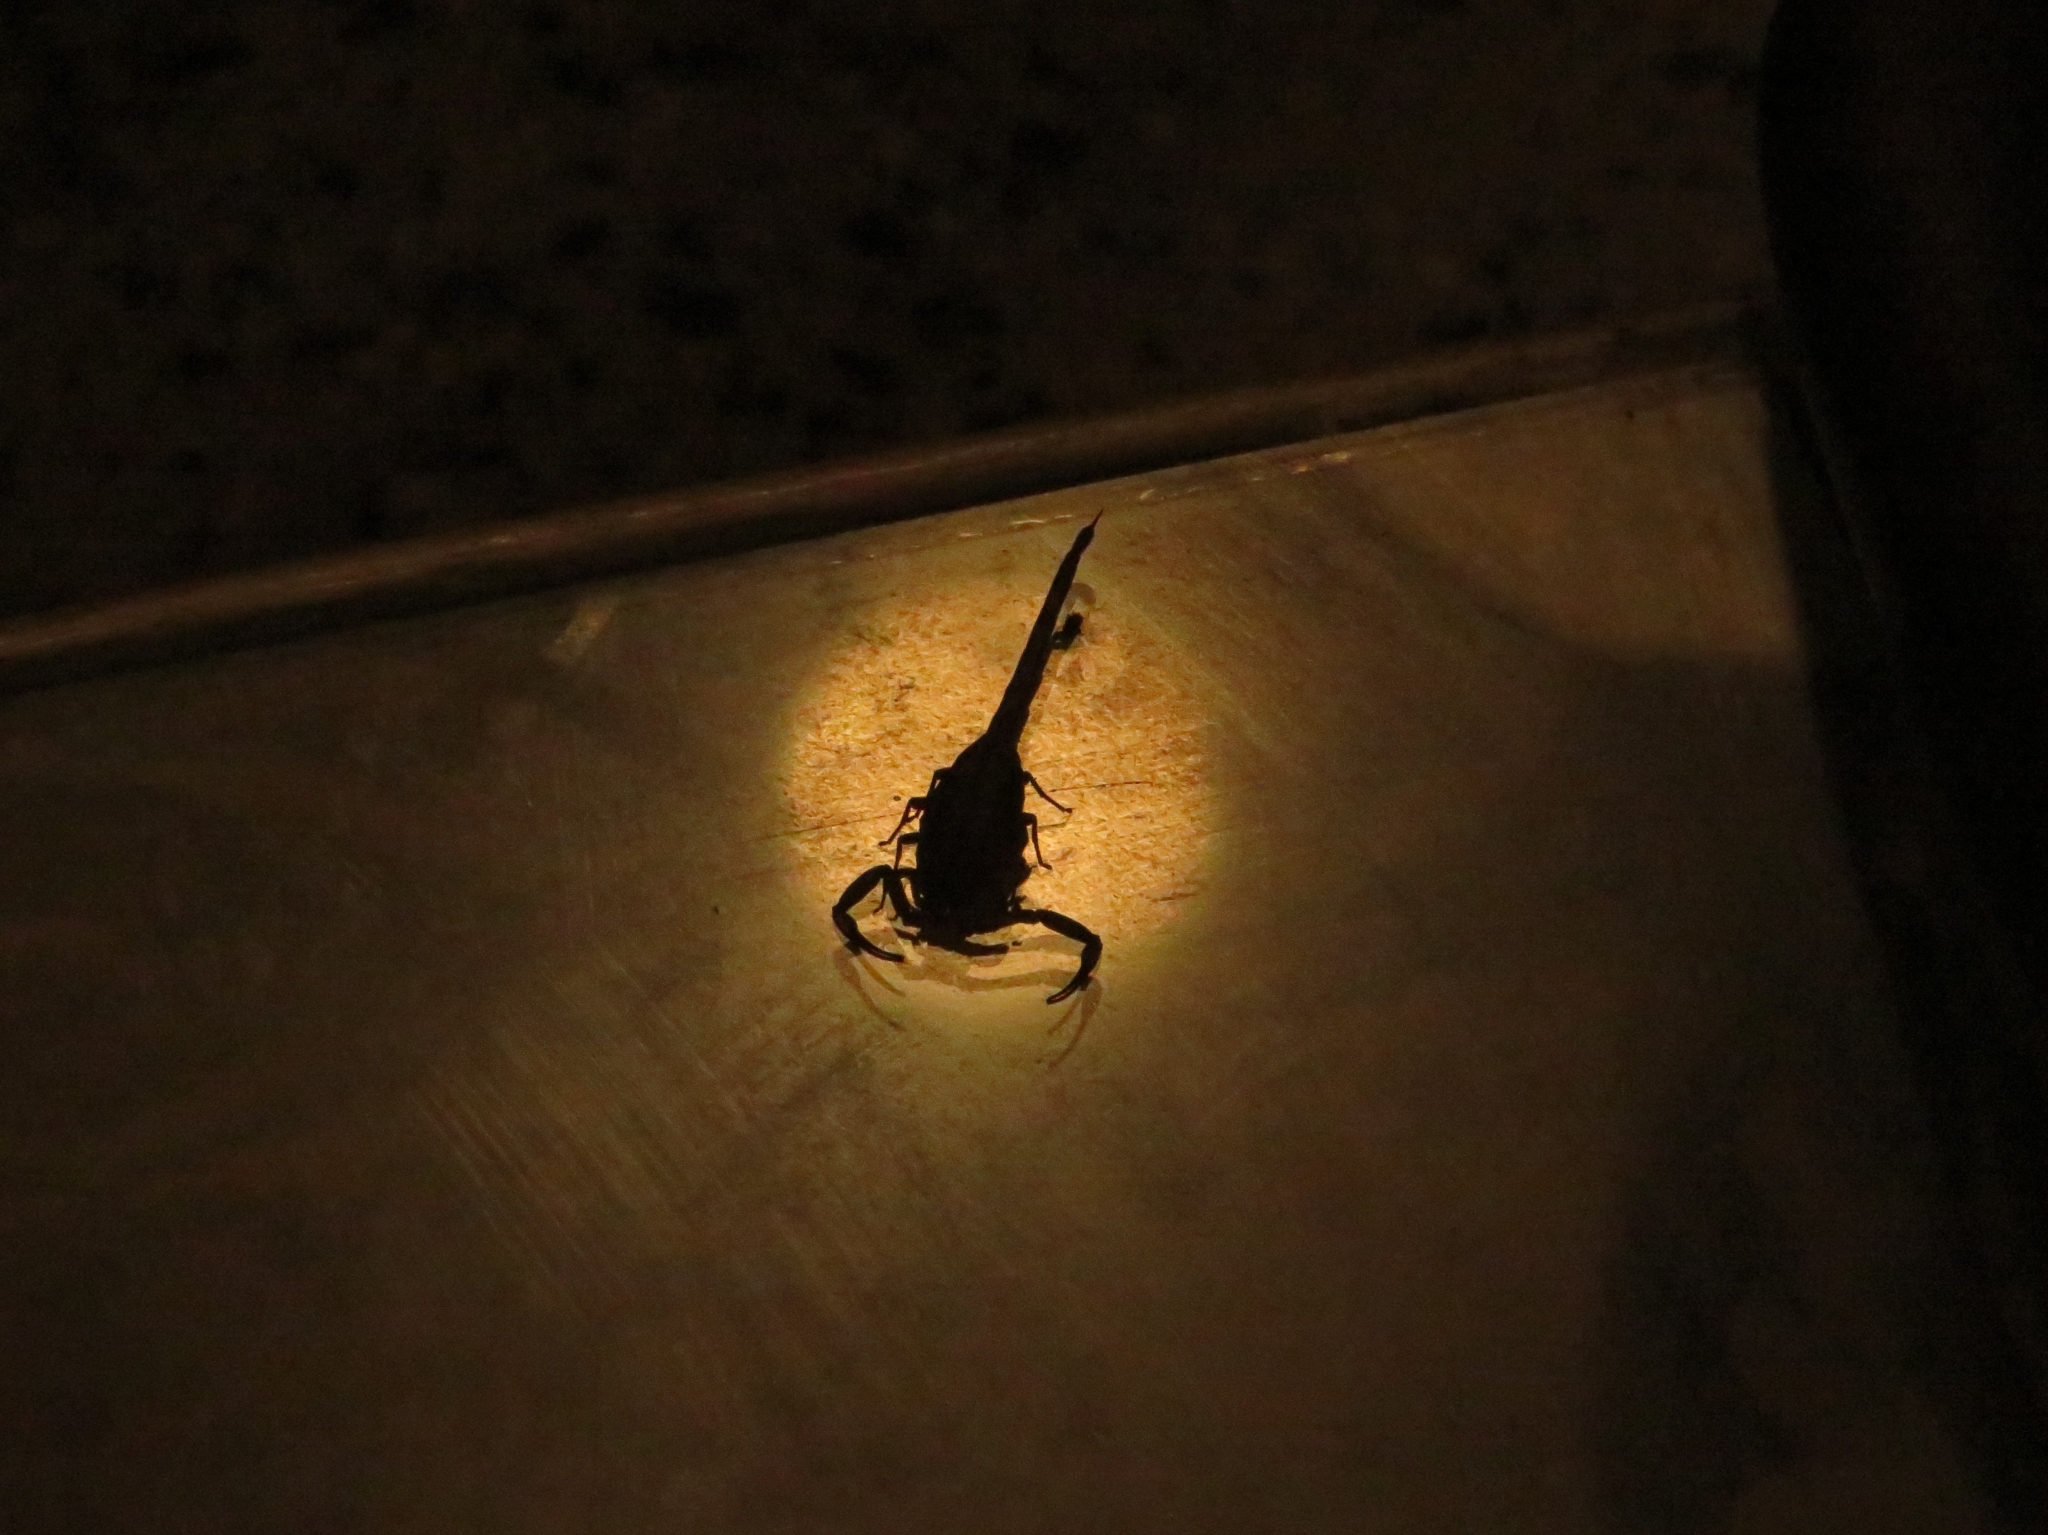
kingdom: Animalia
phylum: Arthropoda
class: Arachnida
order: Scorpiones
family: Buthidae
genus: Isometrus
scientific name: Isometrus maculatus
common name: Scorpions
